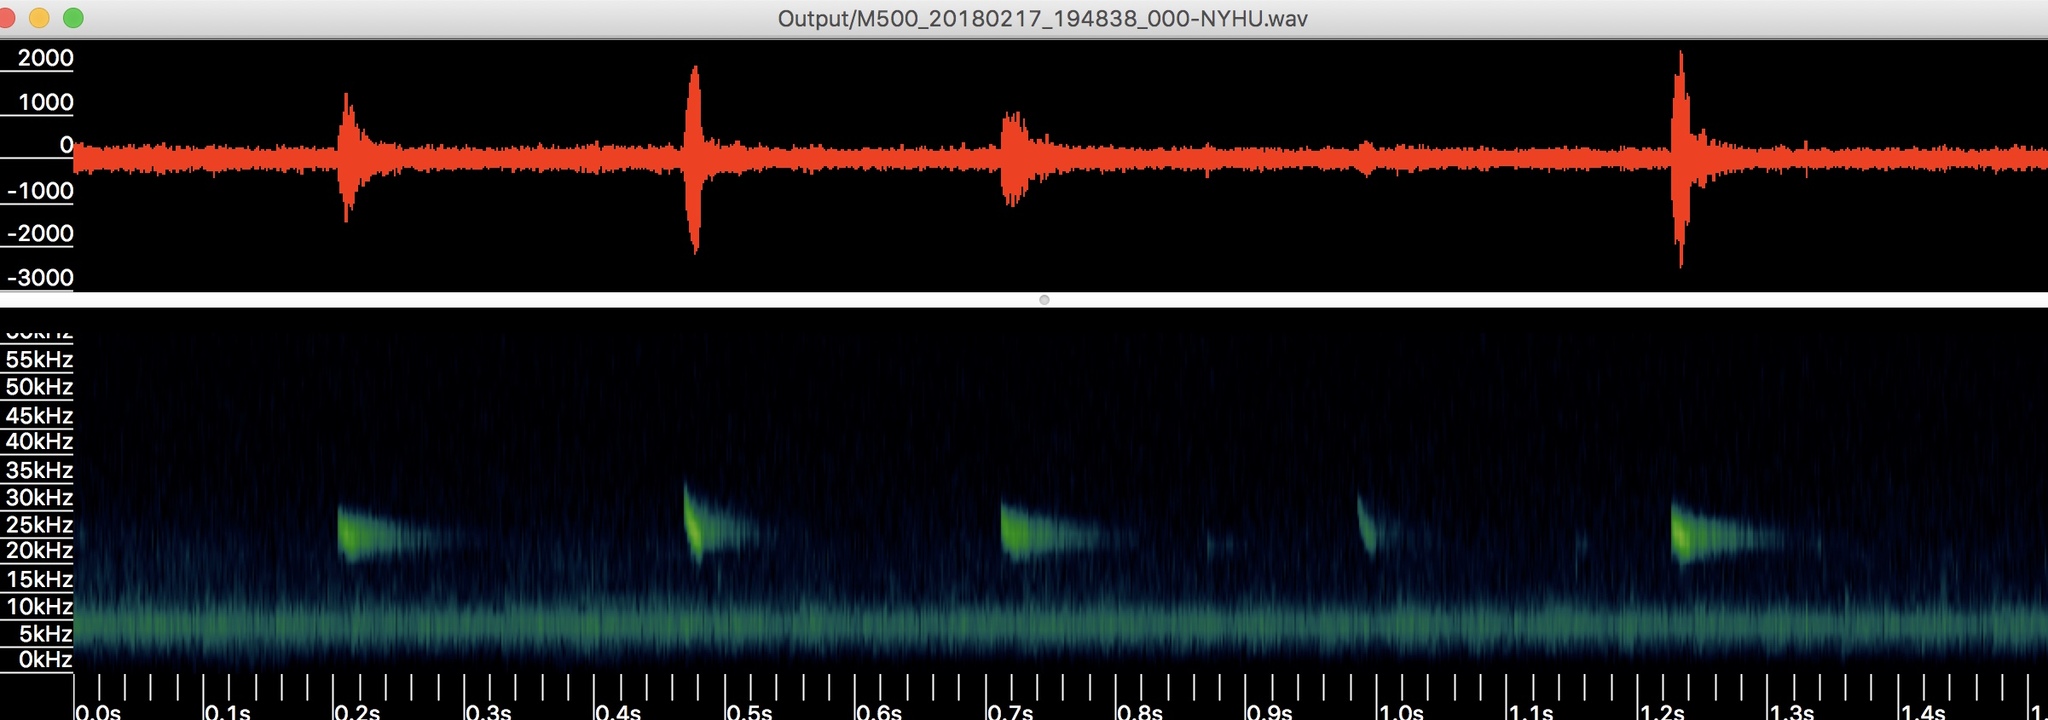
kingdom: Animalia
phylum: Chordata
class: Mammalia
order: Chiroptera
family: Vespertilionidae
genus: Nycticeius
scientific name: Nycticeius humeralis
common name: Evening bat
